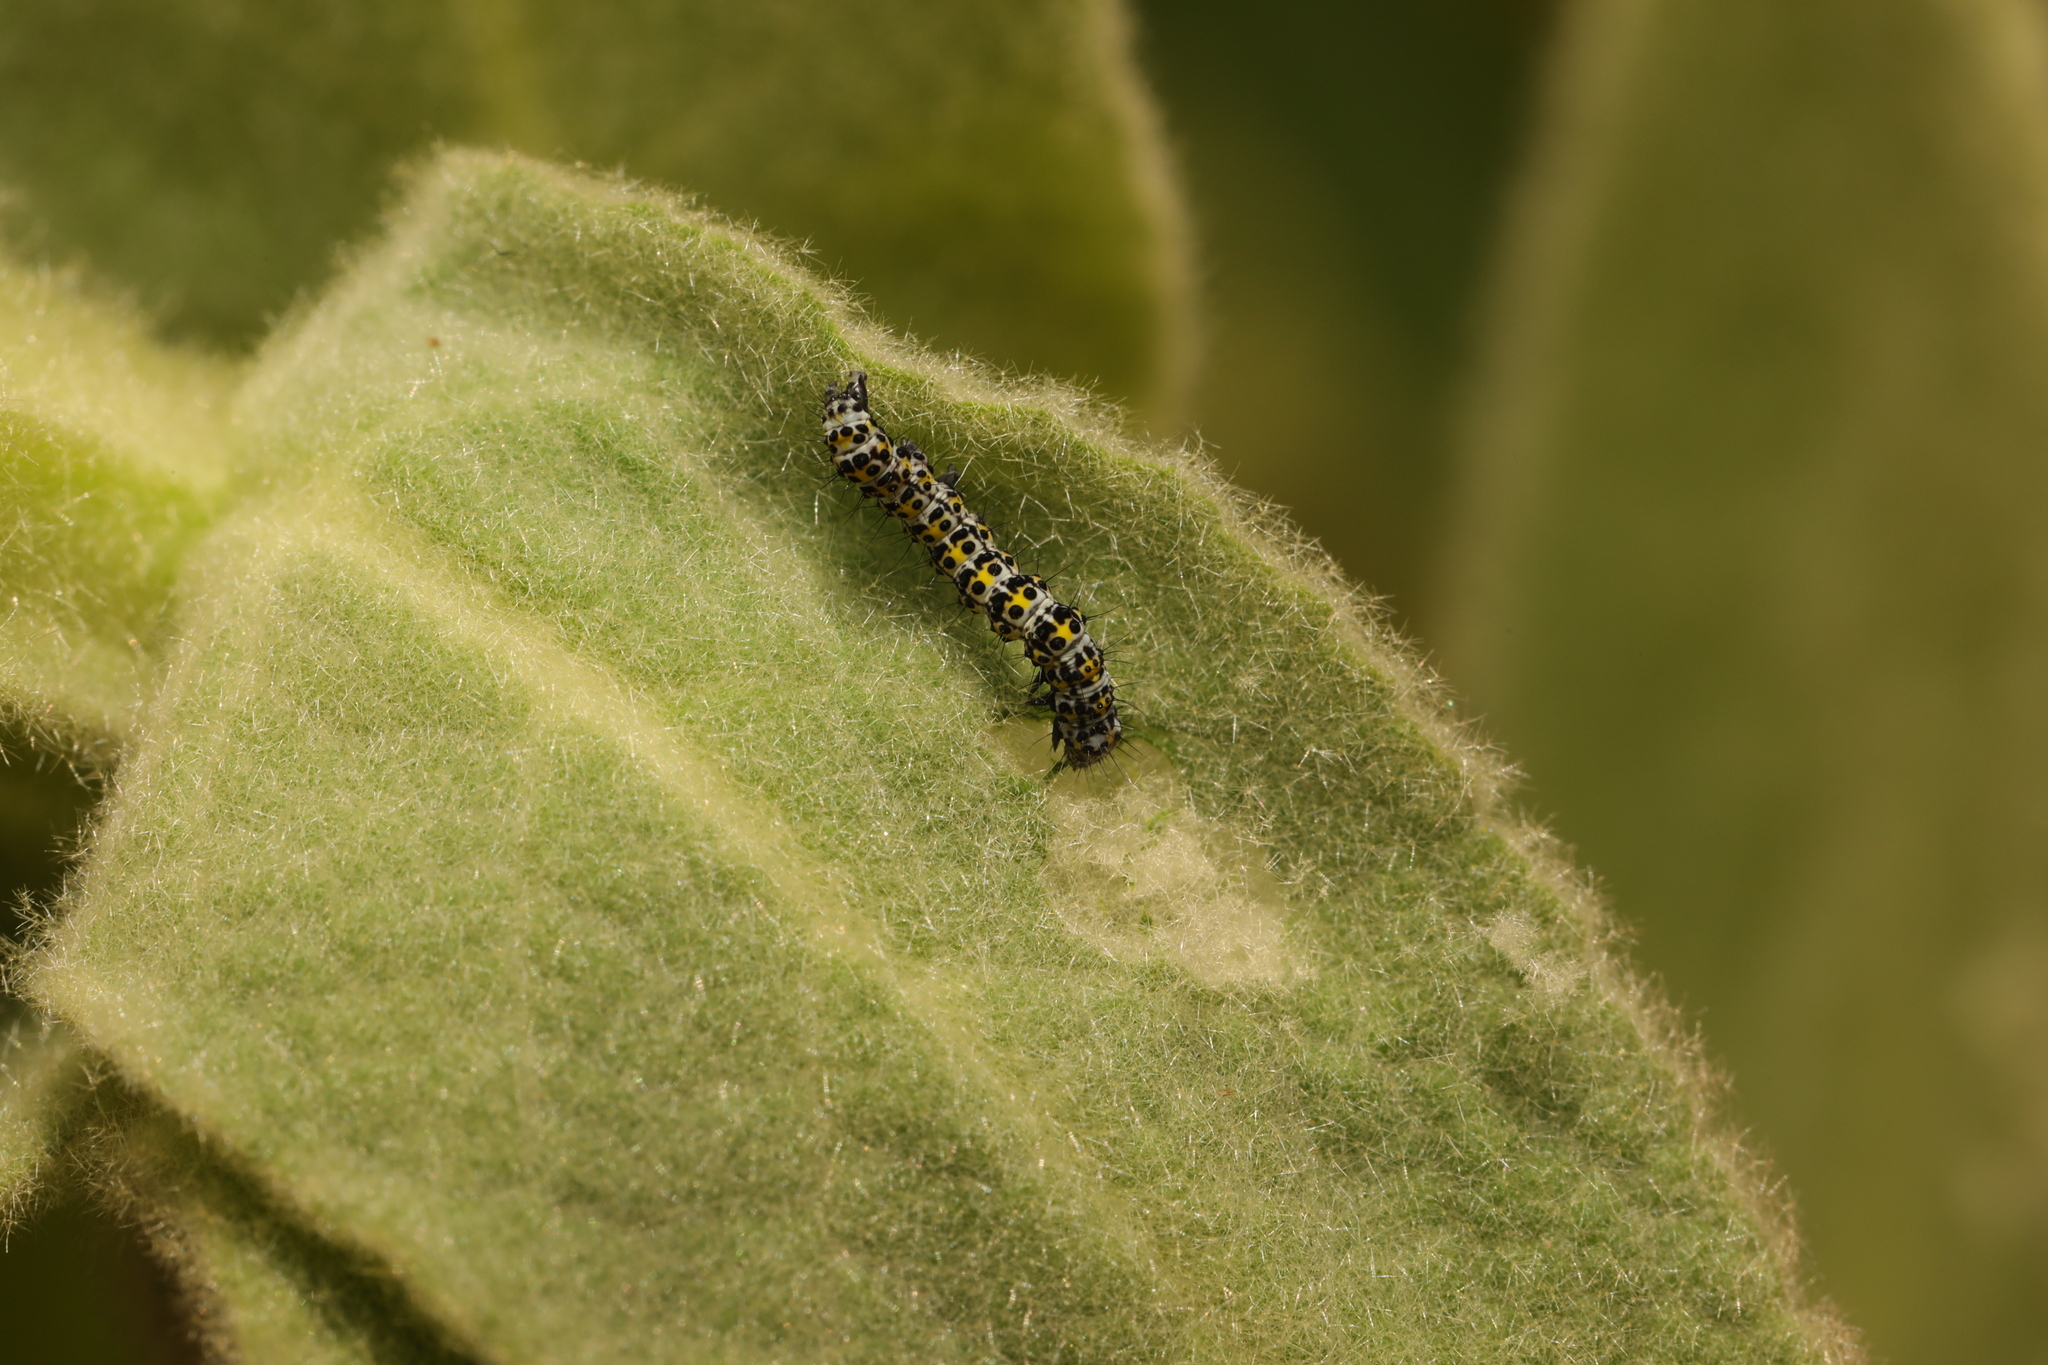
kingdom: Animalia
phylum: Arthropoda
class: Insecta
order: Lepidoptera
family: Noctuidae
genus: Cucullia
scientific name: Cucullia verbasci
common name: Mullein
